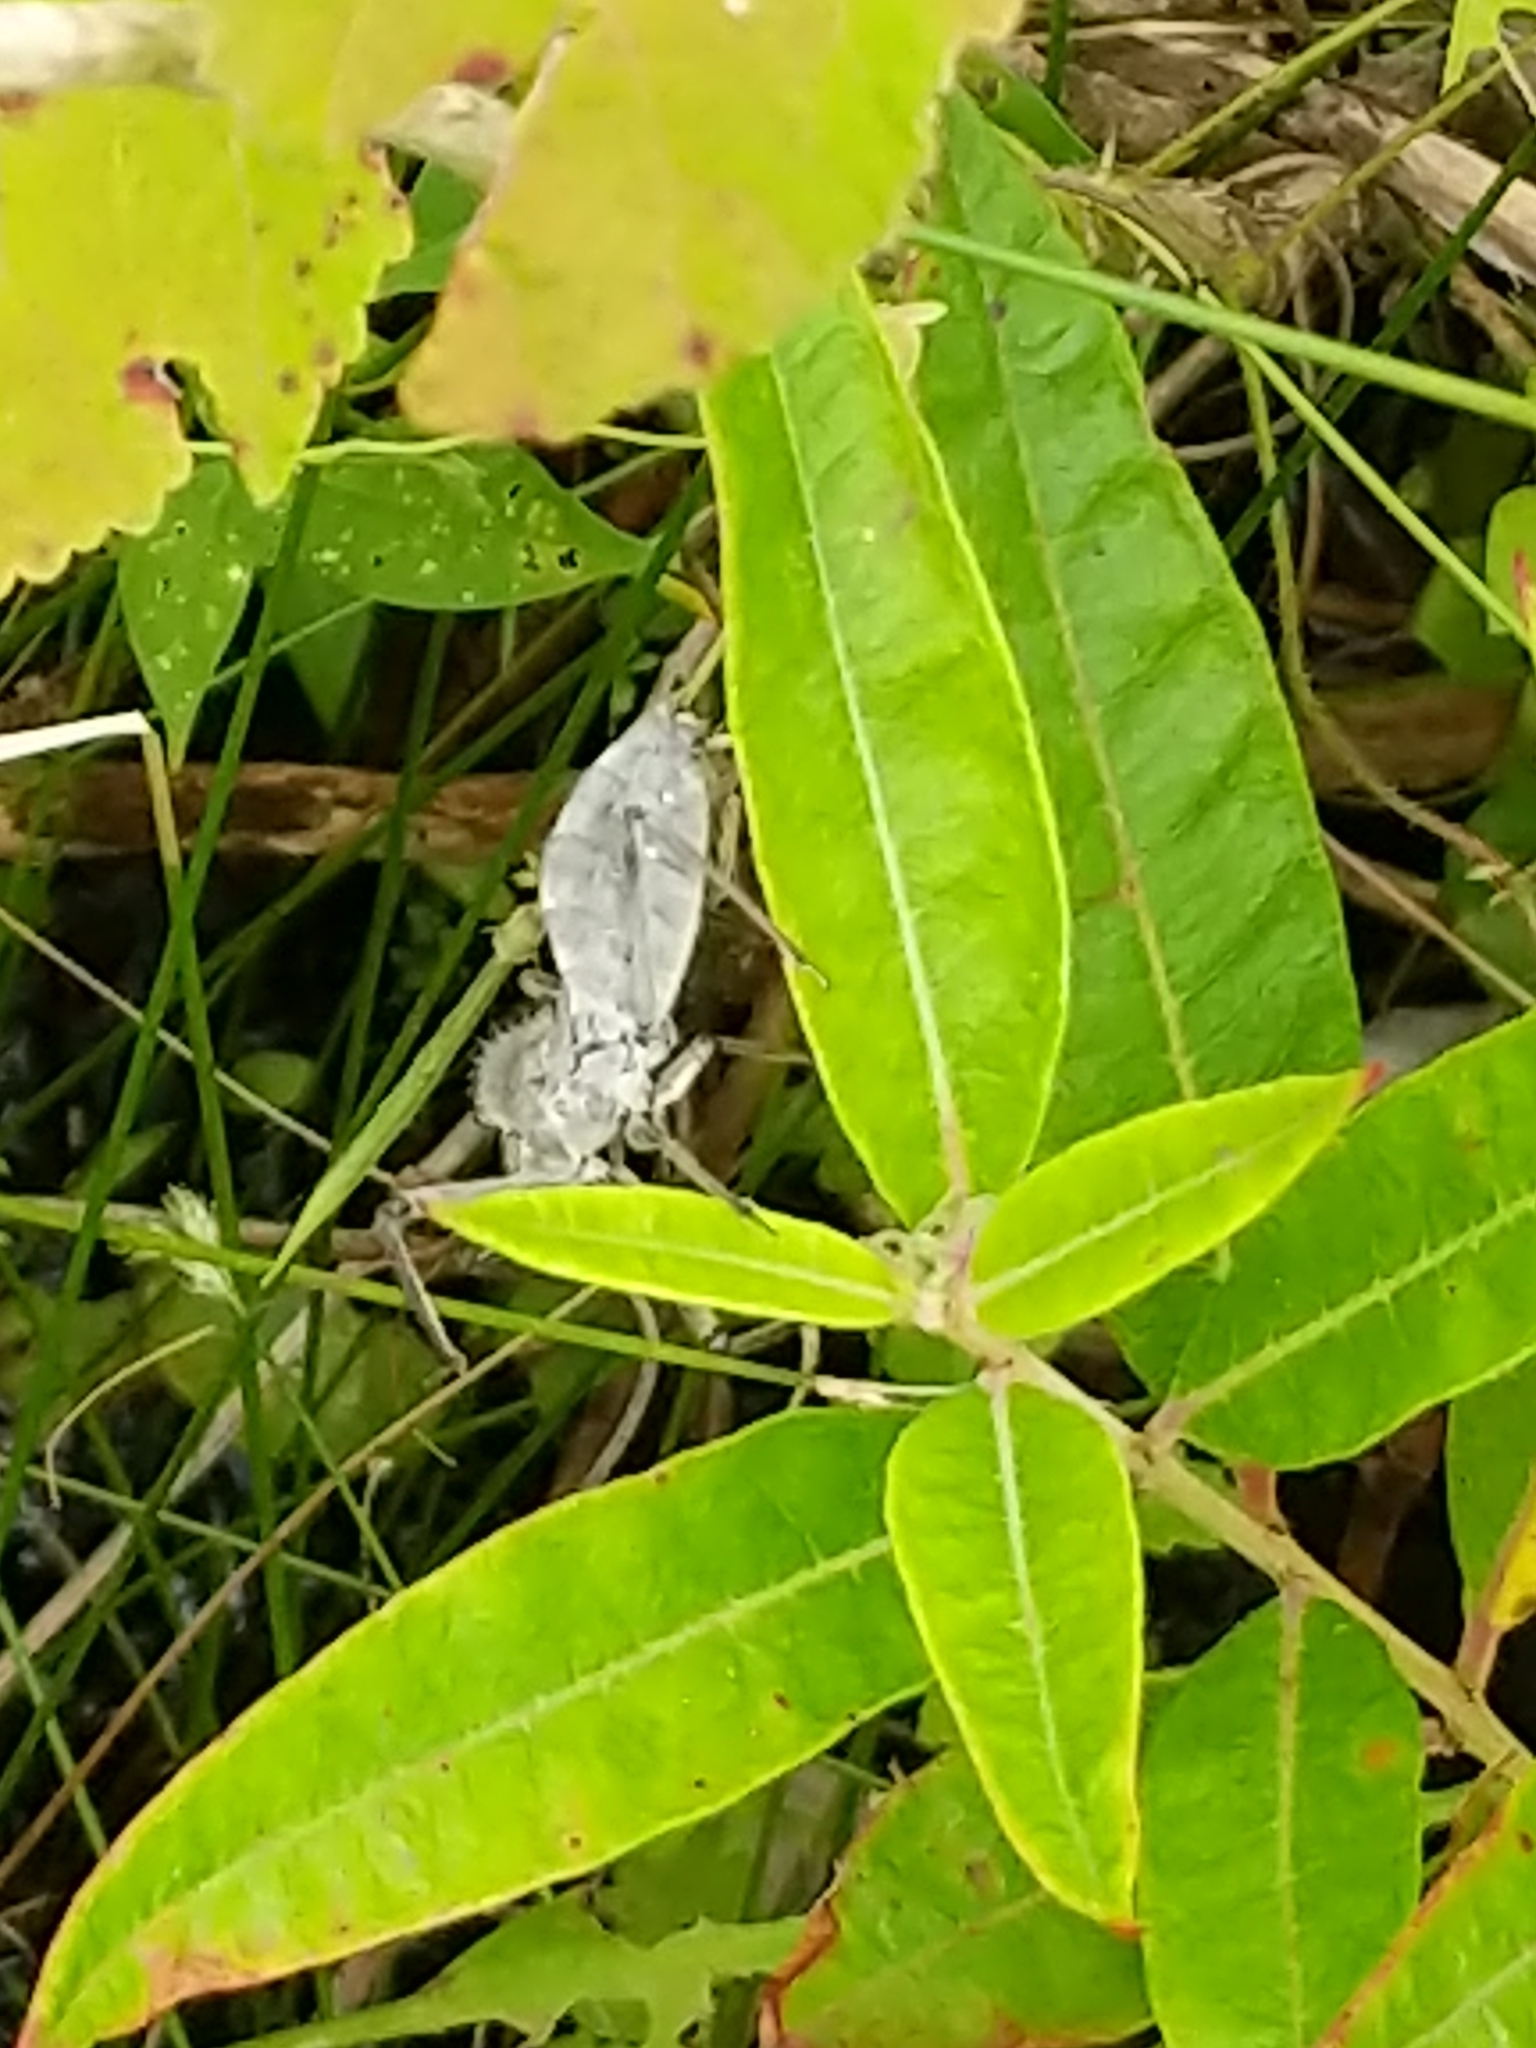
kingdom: Animalia
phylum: Arthropoda
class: Insecta
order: Hemiptera
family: Reduviidae
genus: Arilus
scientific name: Arilus cristatus
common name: North american wheel bug
